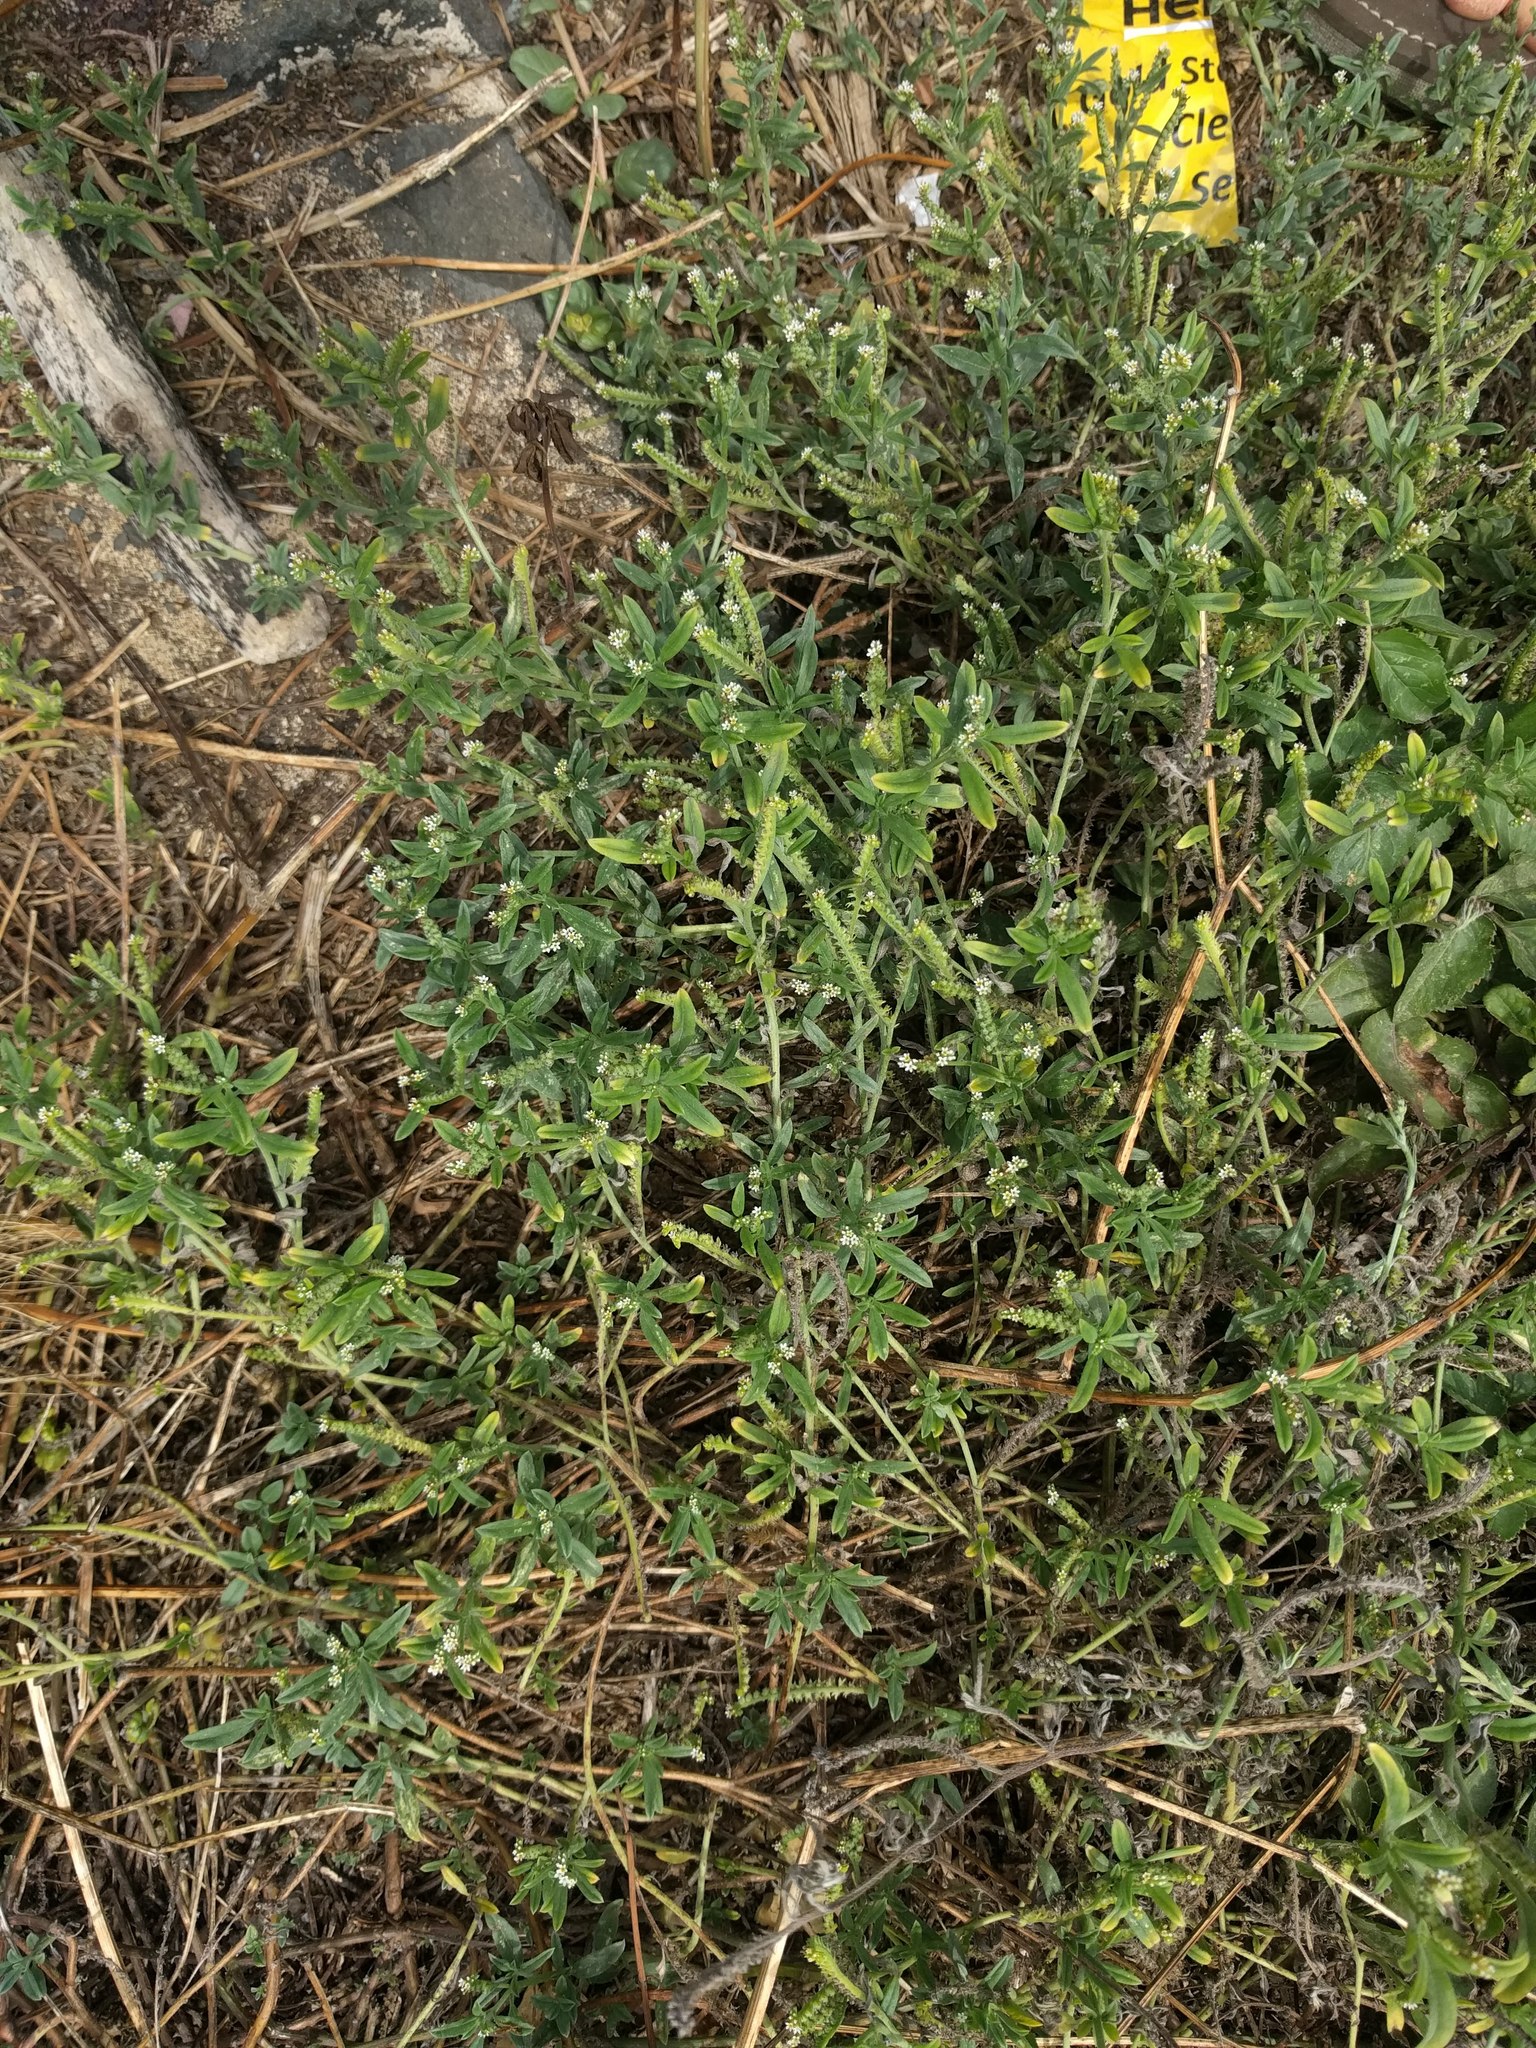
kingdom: Plantae
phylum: Tracheophyta
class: Magnoliopsida
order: Boraginales
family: Heliotropiaceae
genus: Euploca
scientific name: Euploca procumbens
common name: Fourspike heliotrope
